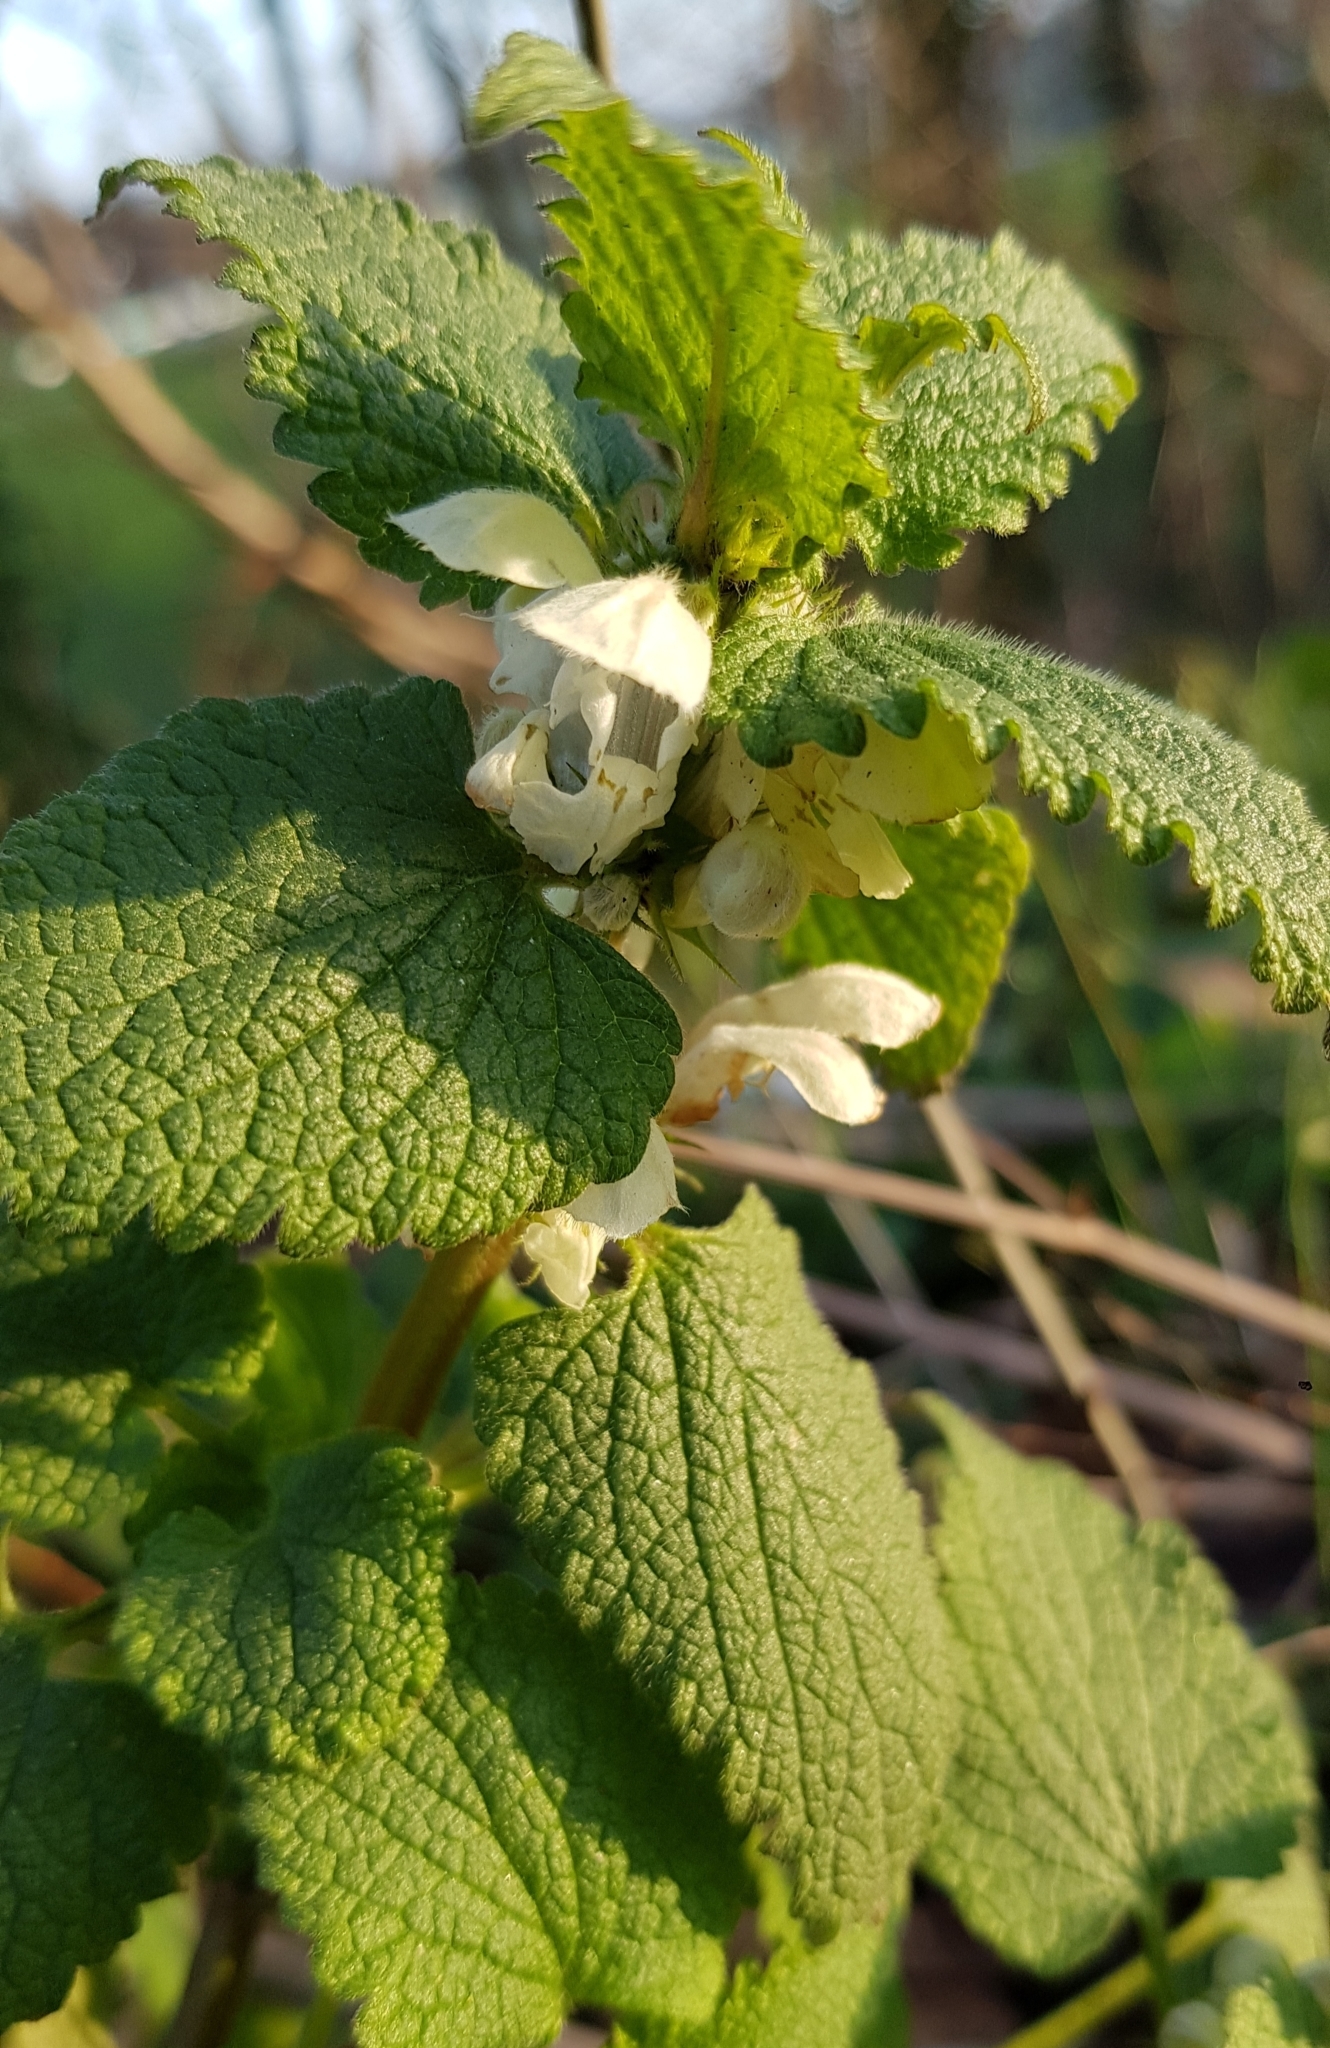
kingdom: Plantae
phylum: Tracheophyta
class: Magnoliopsida
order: Lamiales
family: Lamiaceae
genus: Lamium
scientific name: Lamium album
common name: White dead-nettle
